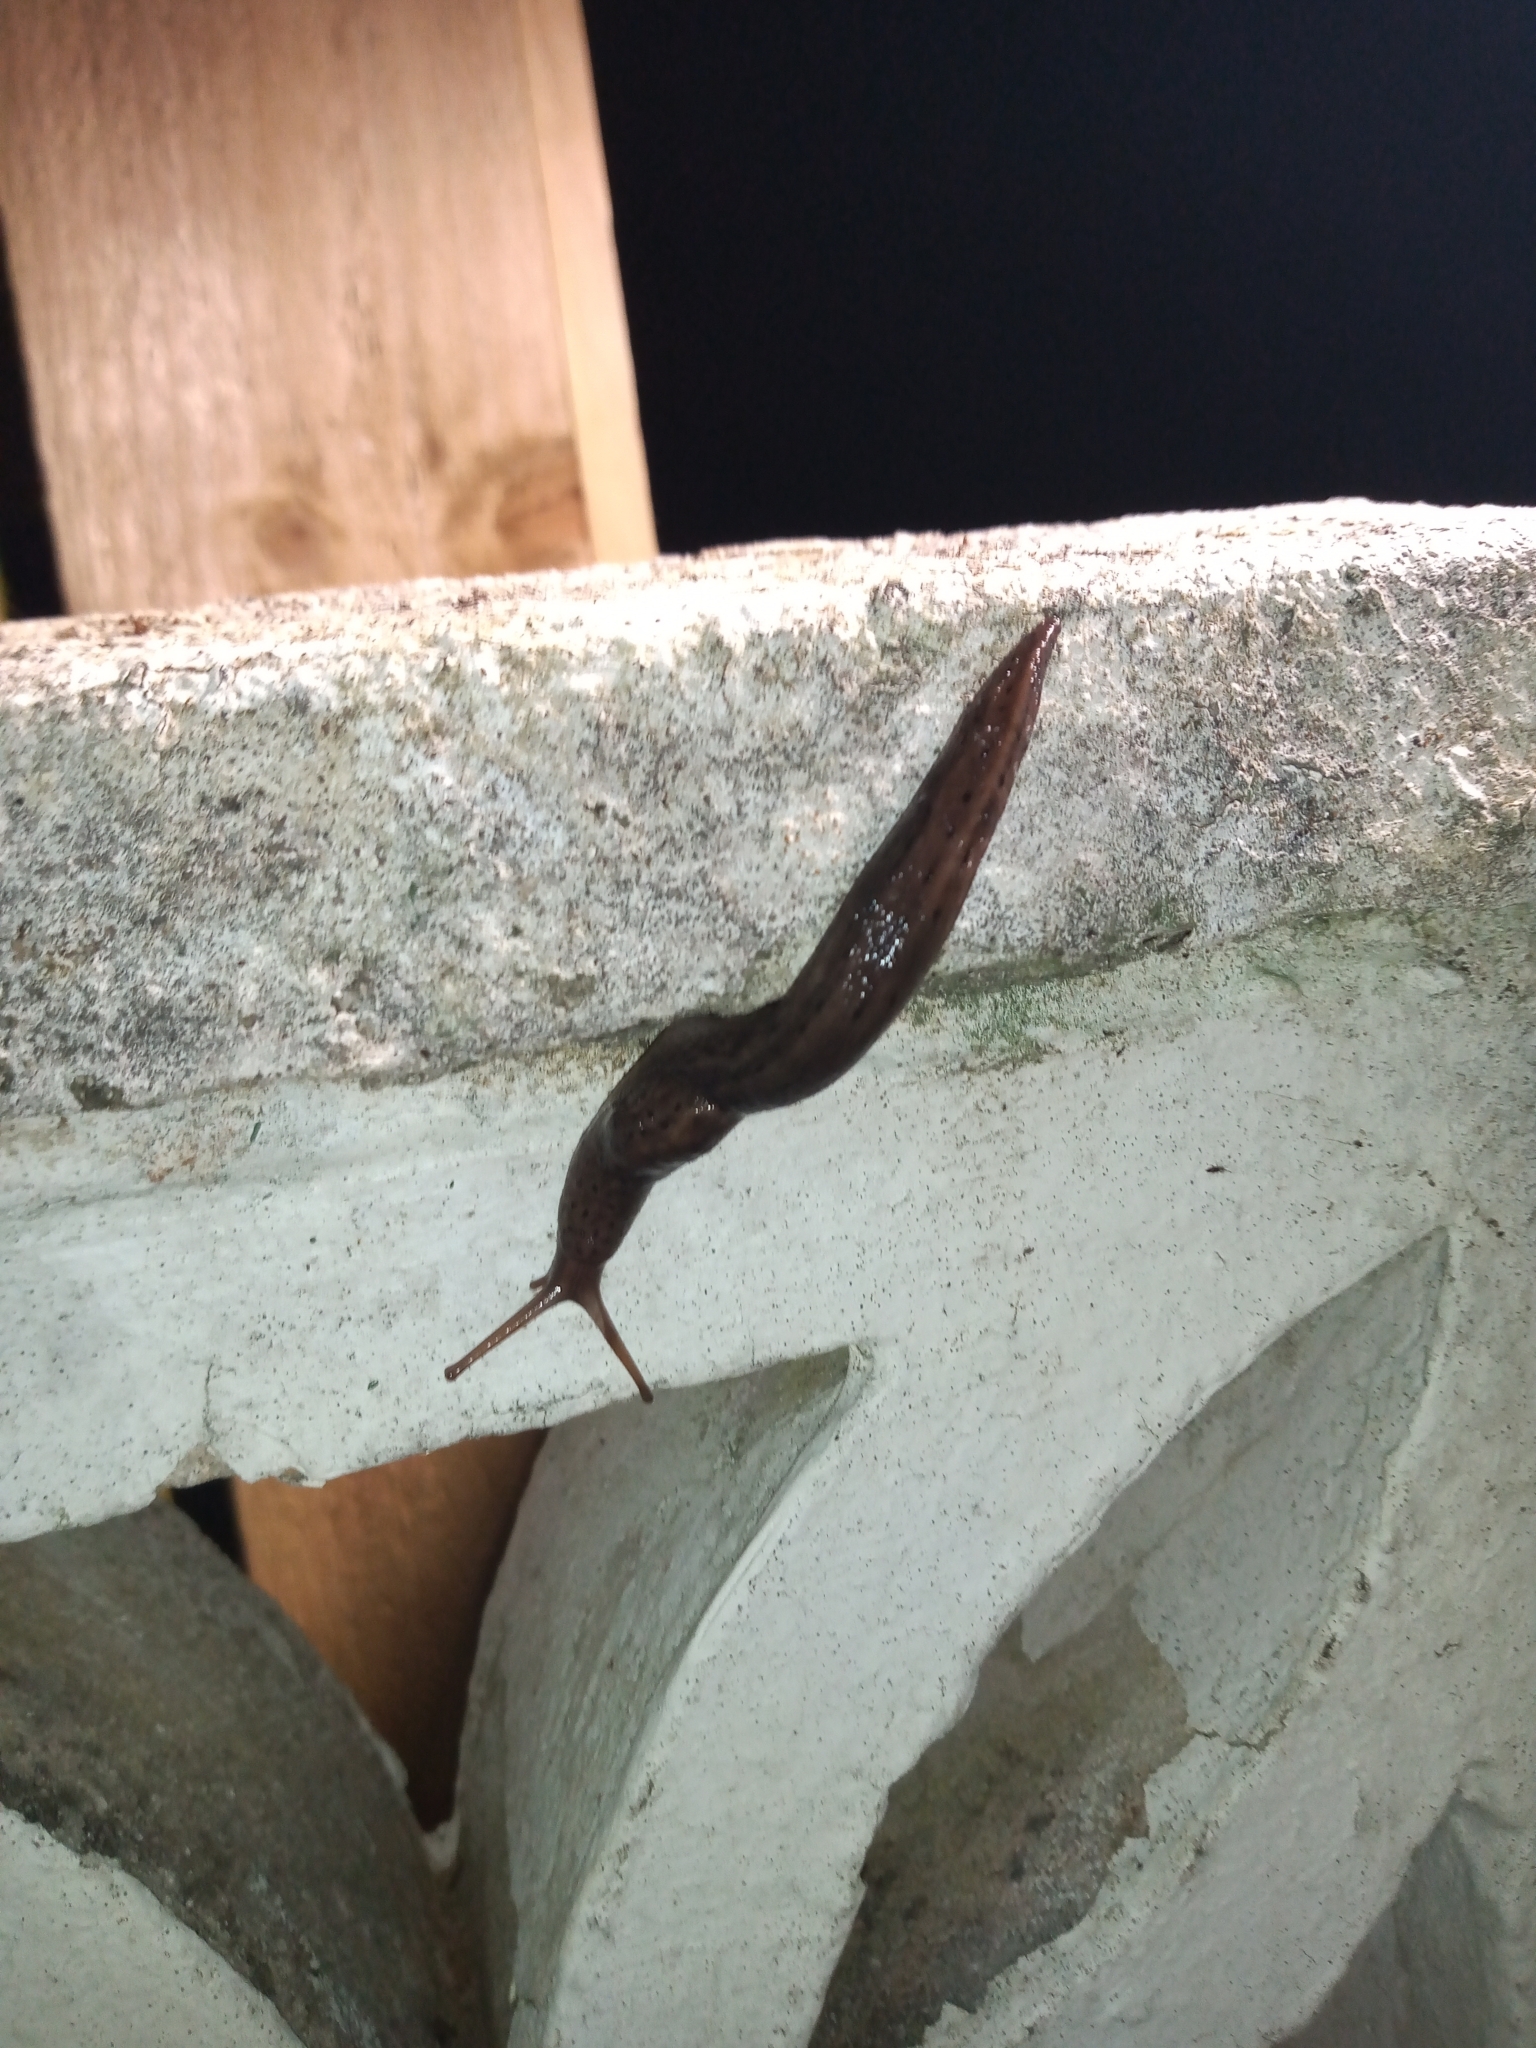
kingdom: Animalia
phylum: Mollusca
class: Gastropoda
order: Stylommatophora
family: Limacidae
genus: Limax
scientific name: Limax maximus
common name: Great grey slug
